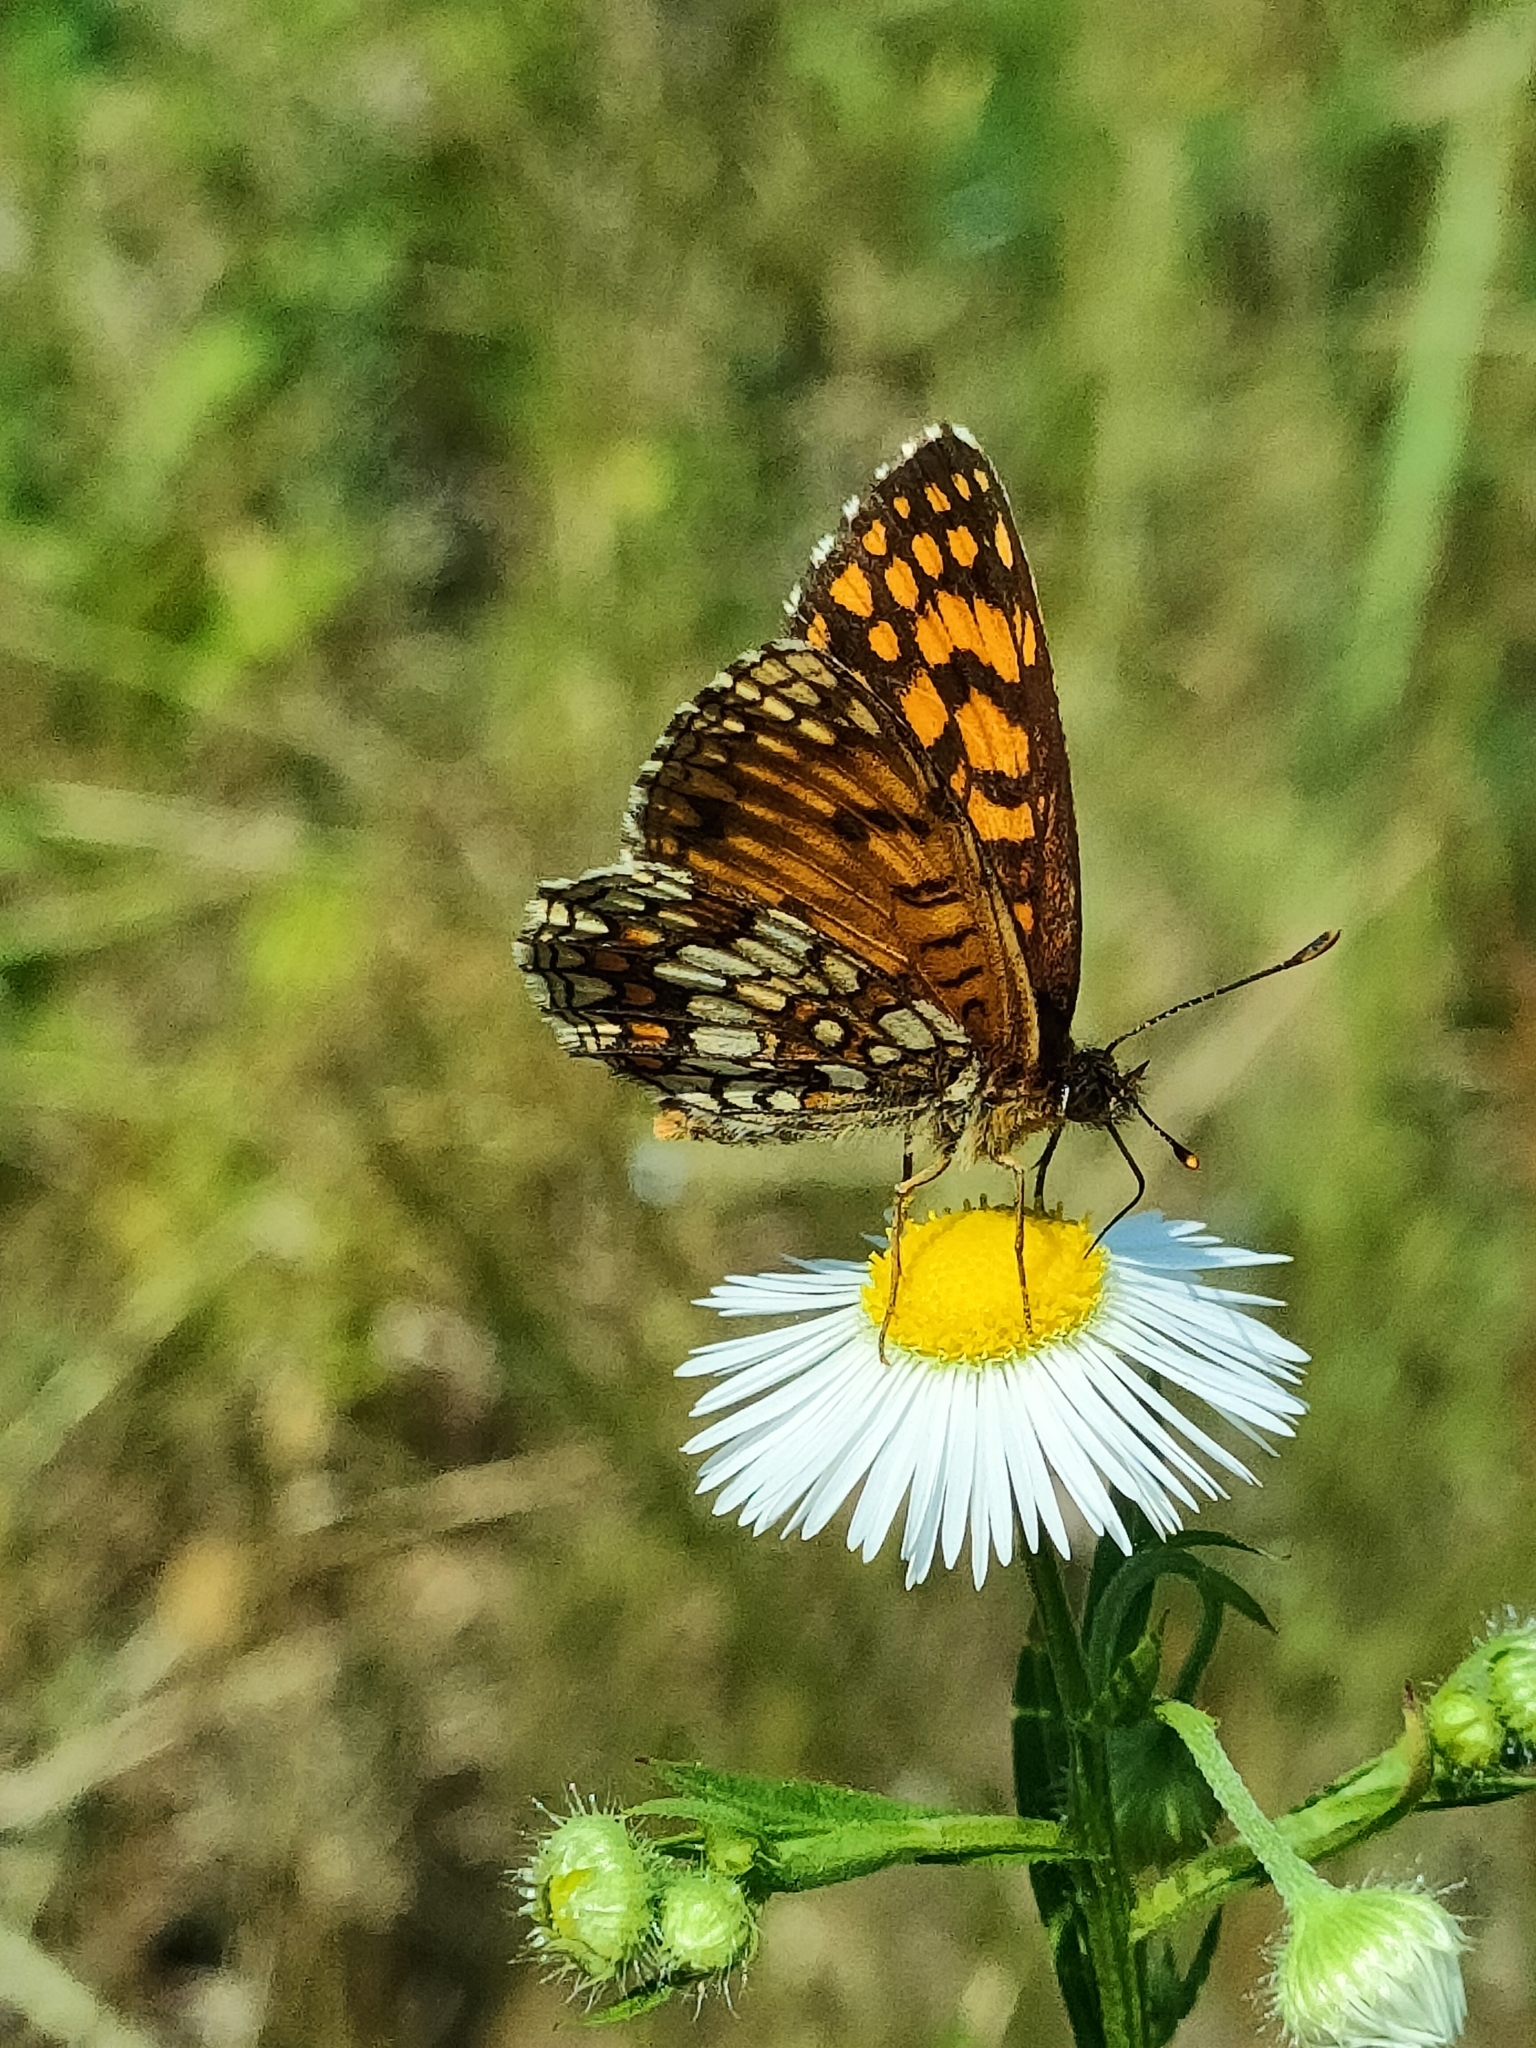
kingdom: Animalia
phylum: Arthropoda
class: Insecta
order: Lepidoptera
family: Nymphalidae
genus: Mellicta
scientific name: Mellicta athalia
